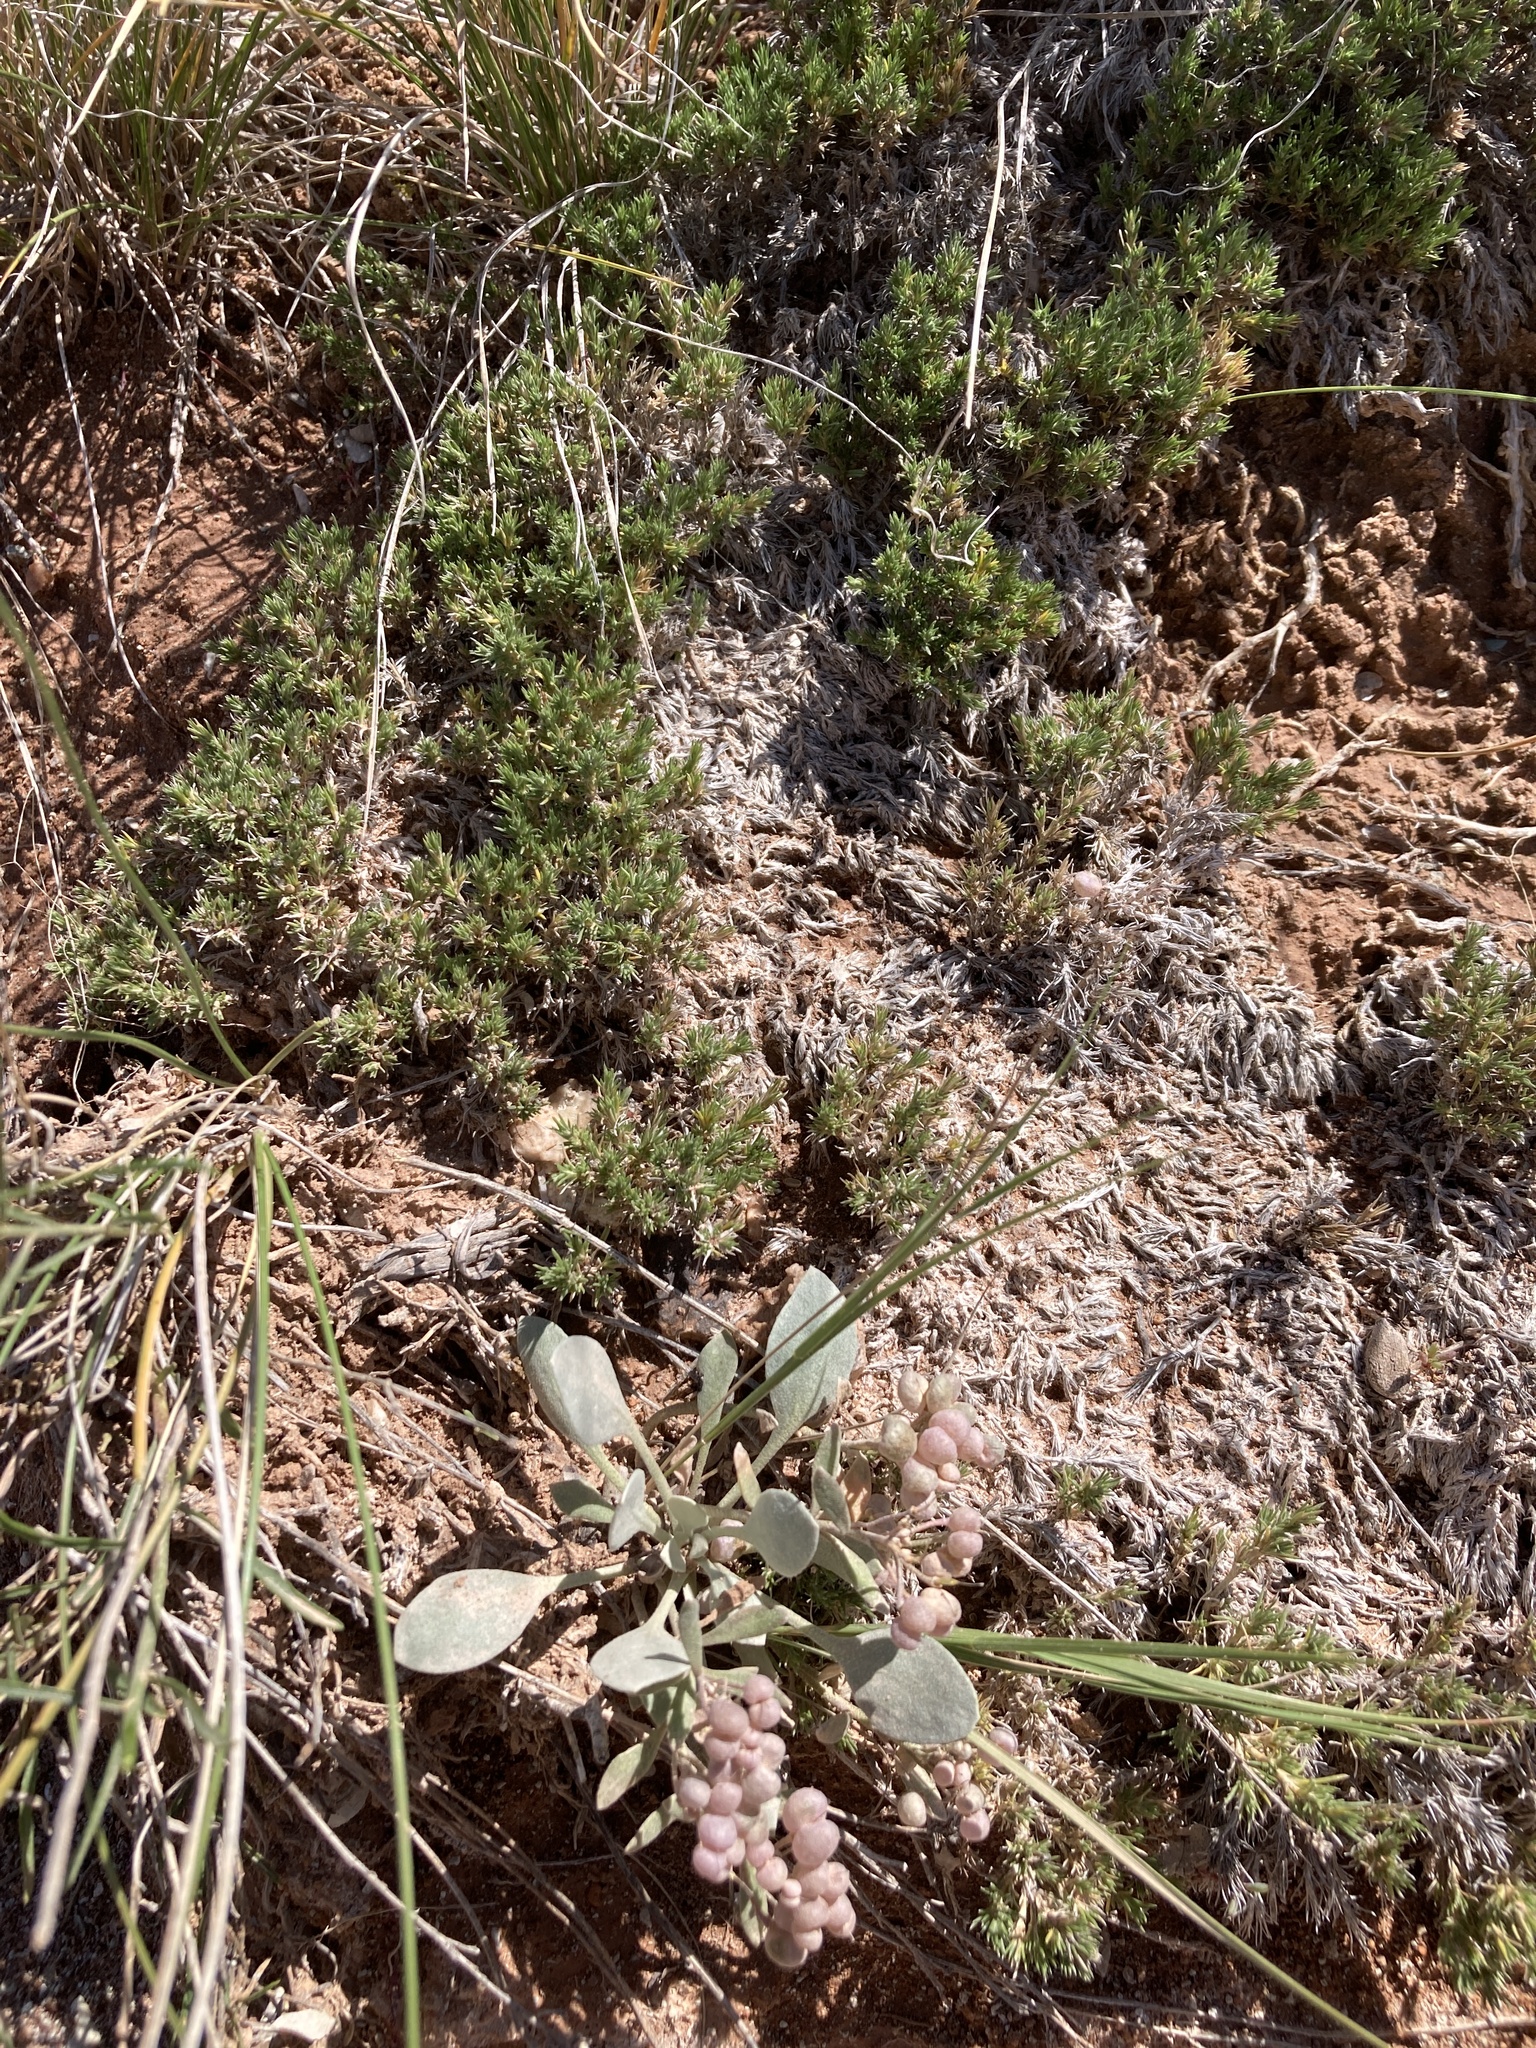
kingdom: Plantae
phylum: Tracheophyta
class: Magnoliopsida
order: Ericales
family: Polemoniaceae
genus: Linanthus
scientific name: Linanthus caespitosus
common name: Mat prickly phlox
